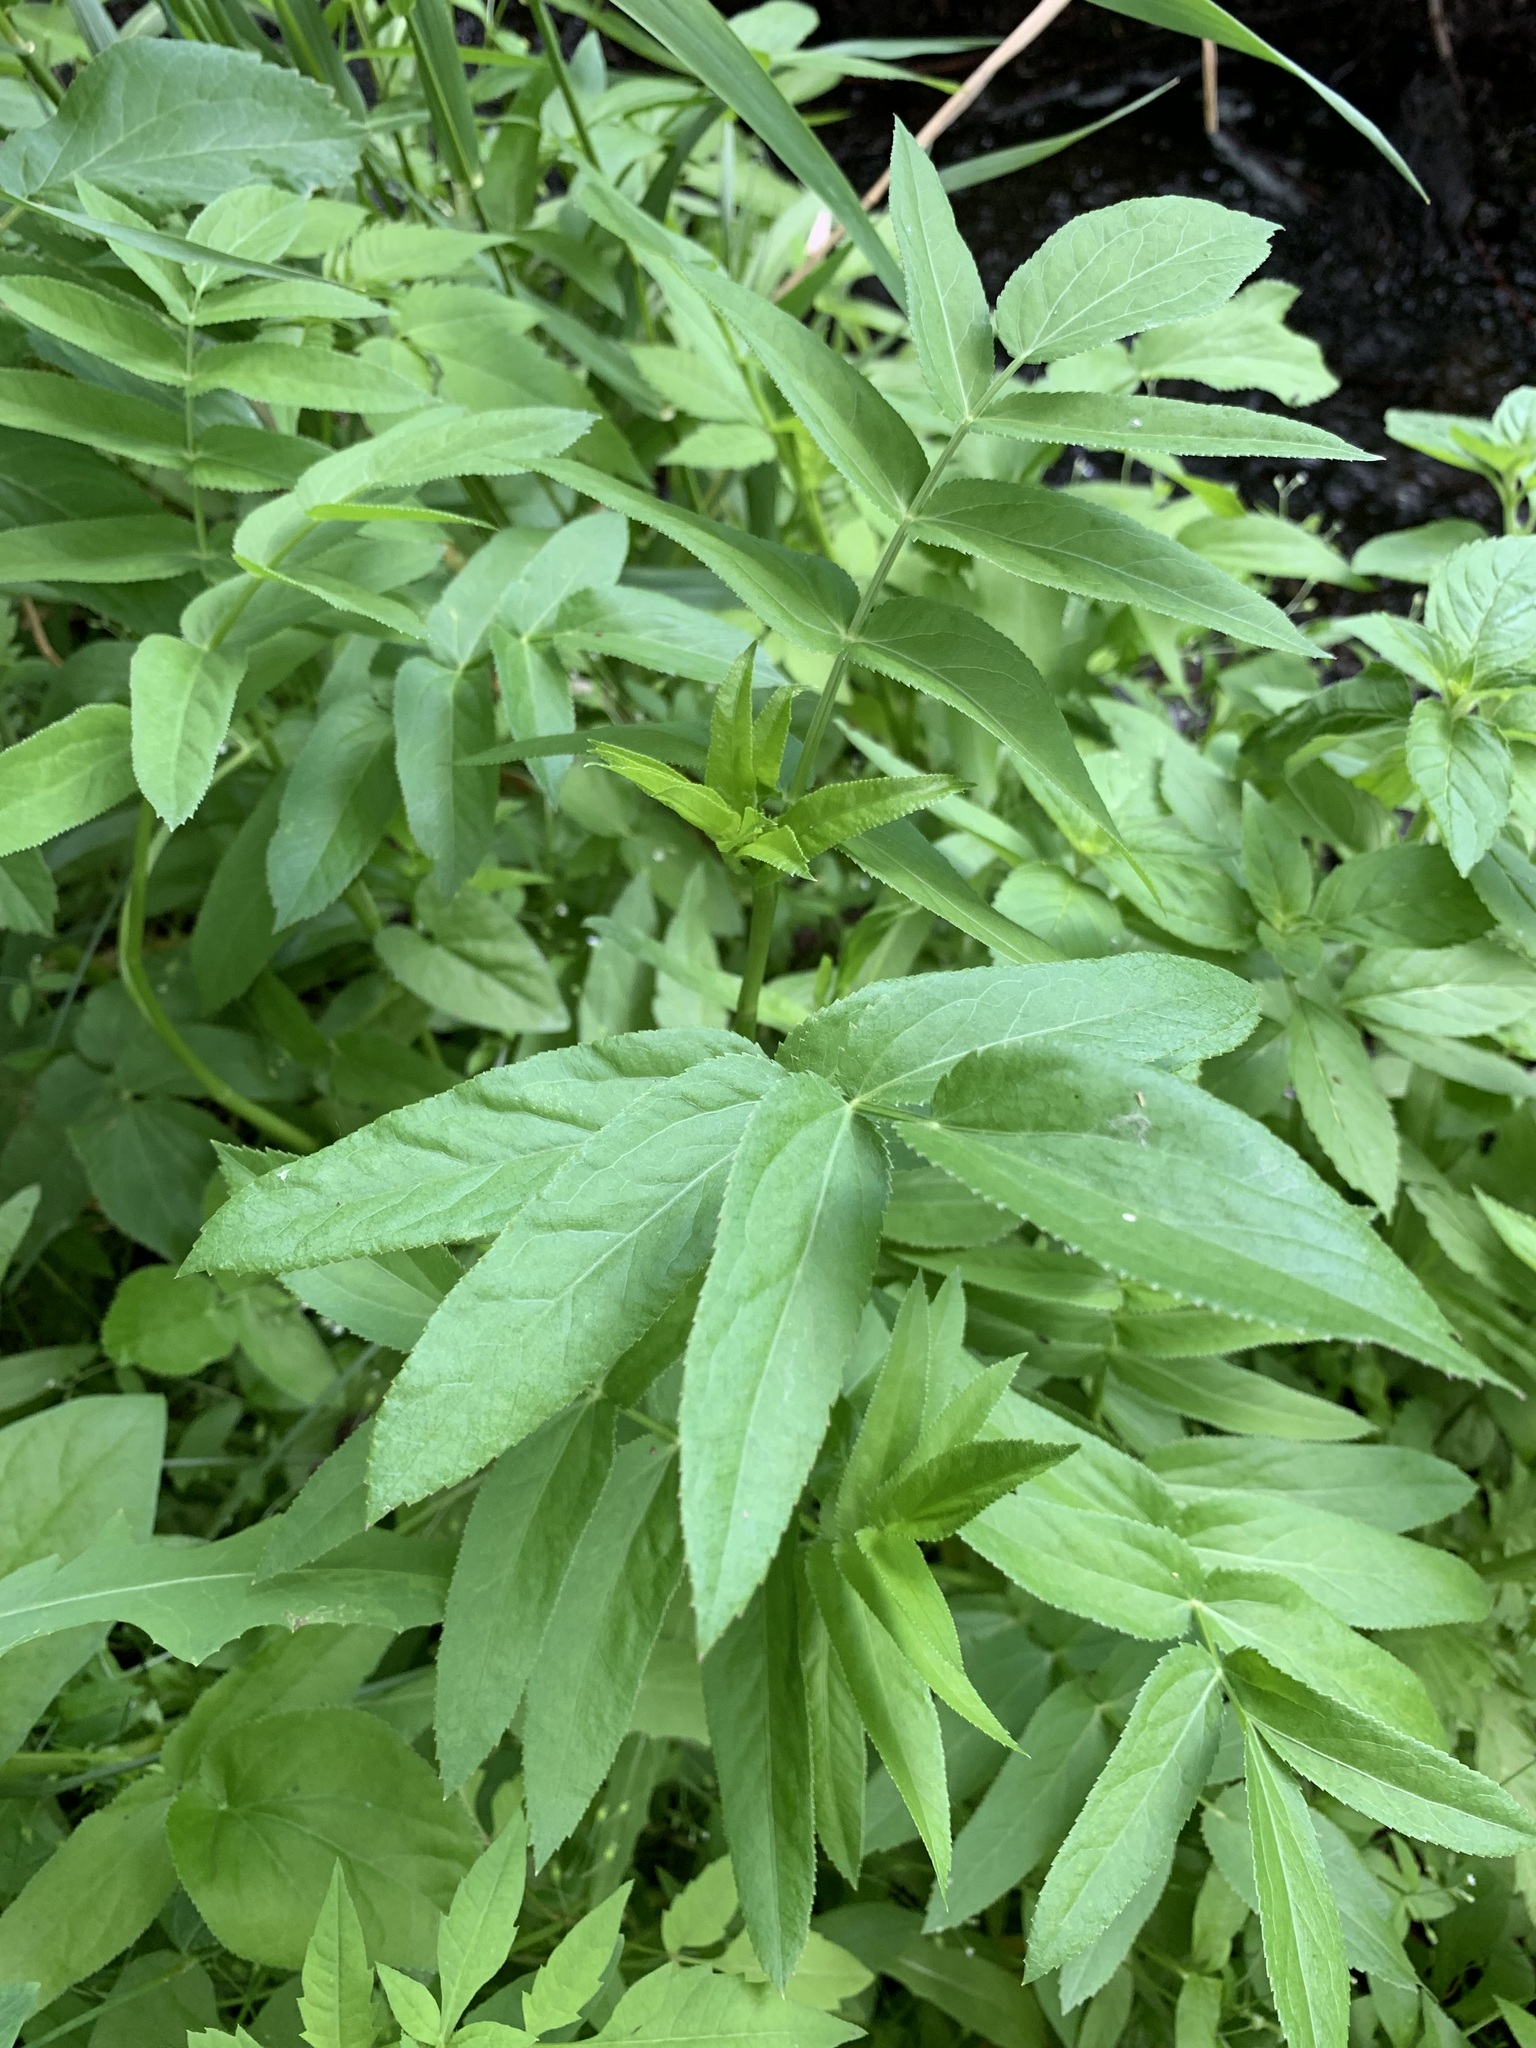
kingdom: Plantae
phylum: Tracheophyta
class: Magnoliopsida
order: Apiales
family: Apiaceae
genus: Sium
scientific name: Sium latifolium
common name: Greater water-parsnip
